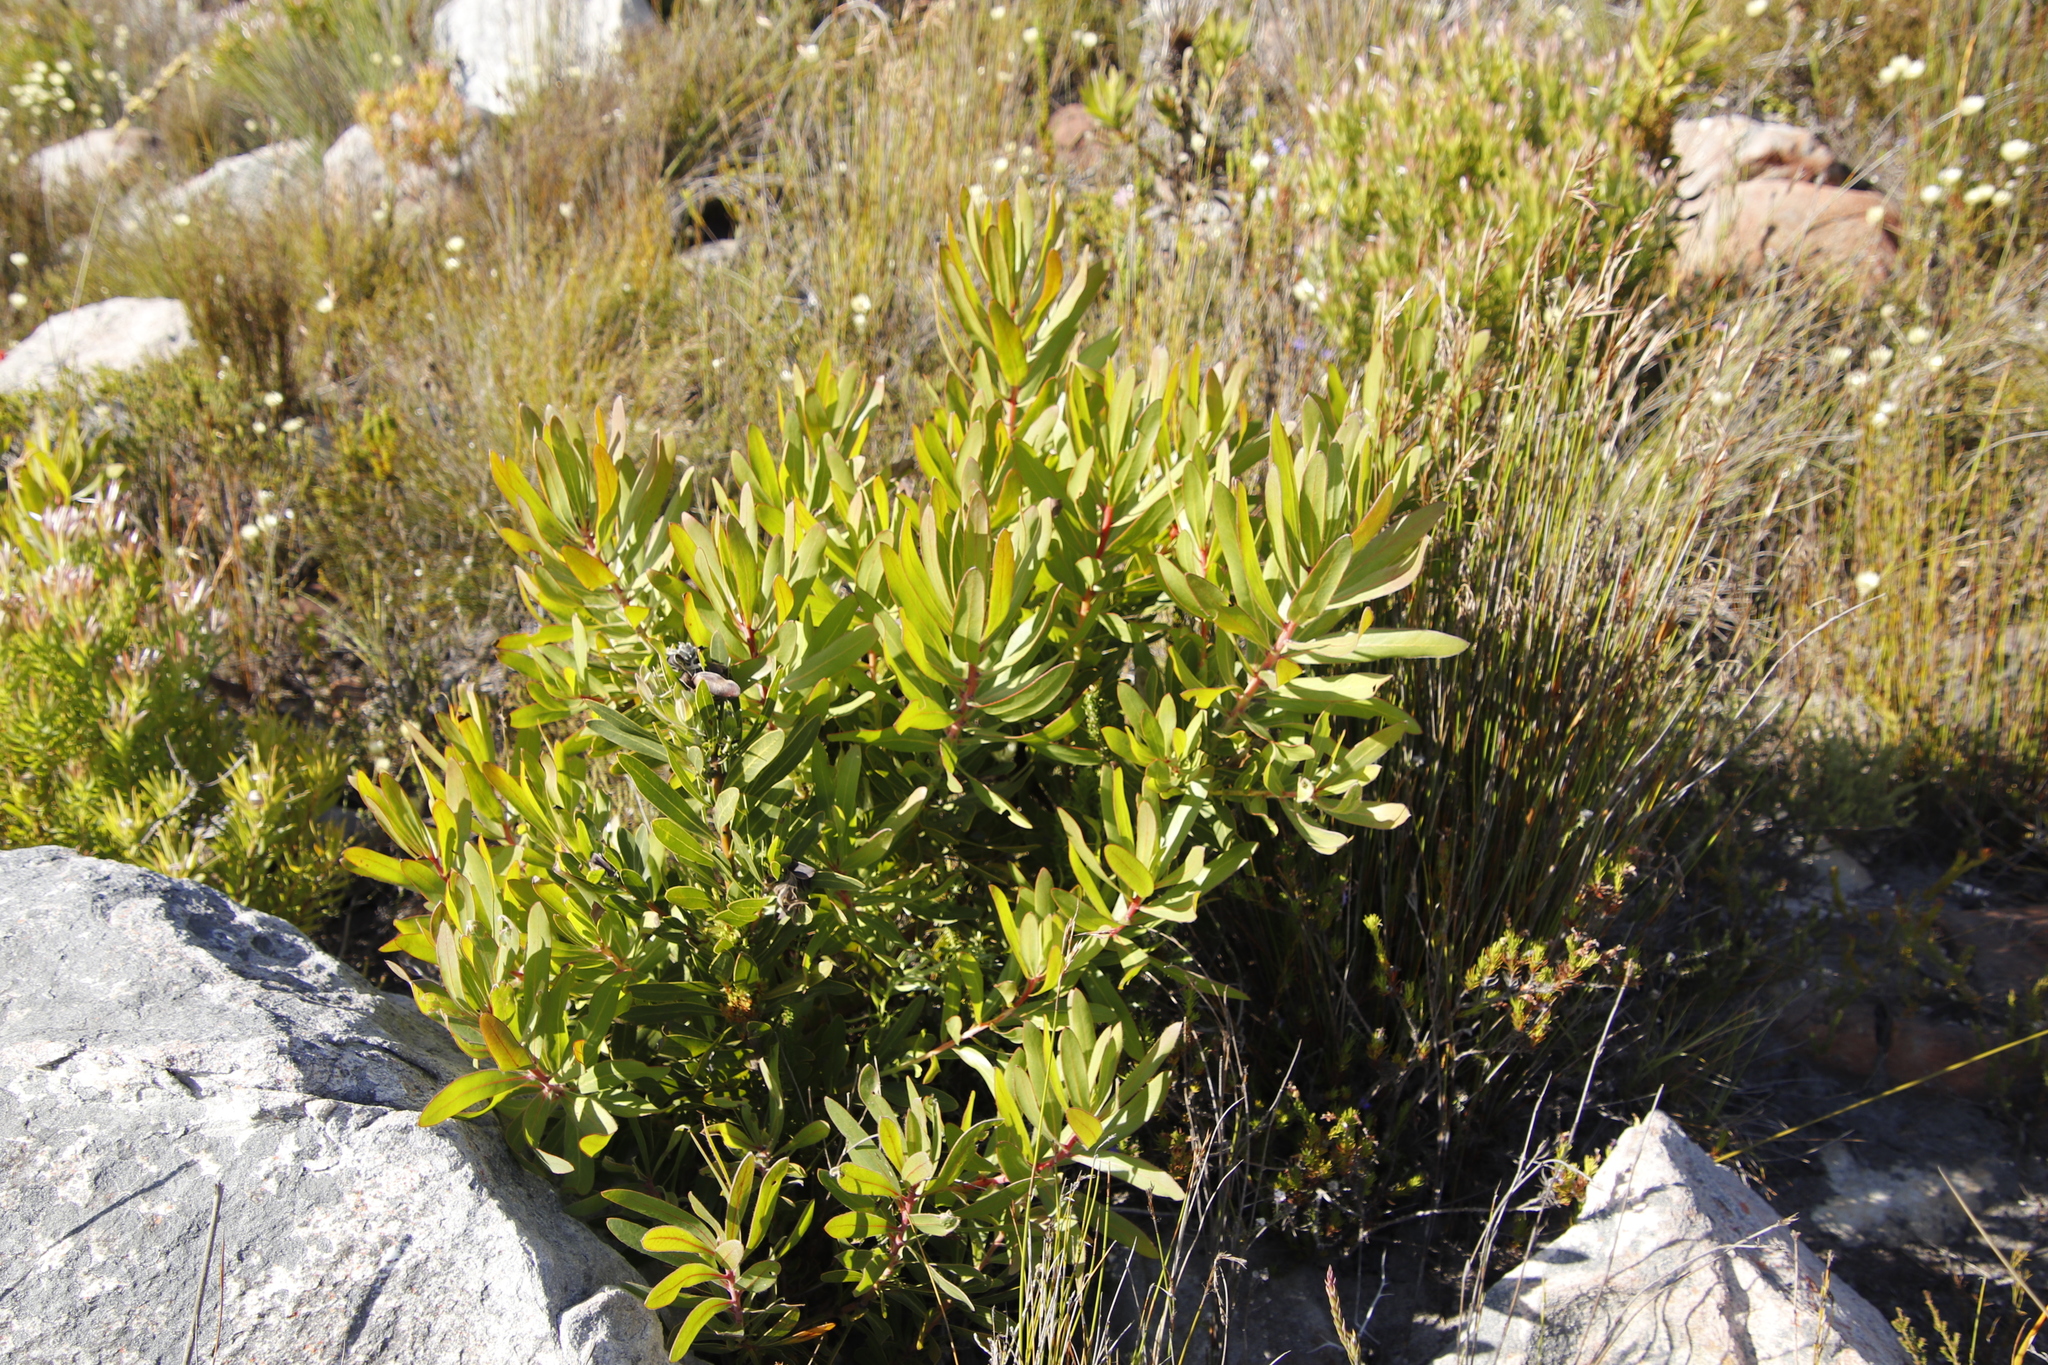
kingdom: Plantae
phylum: Tracheophyta
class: Magnoliopsida
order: Proteales
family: Proteaceae
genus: Protea
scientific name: Protea lepidocarpodendron
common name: Black-bearded protea
